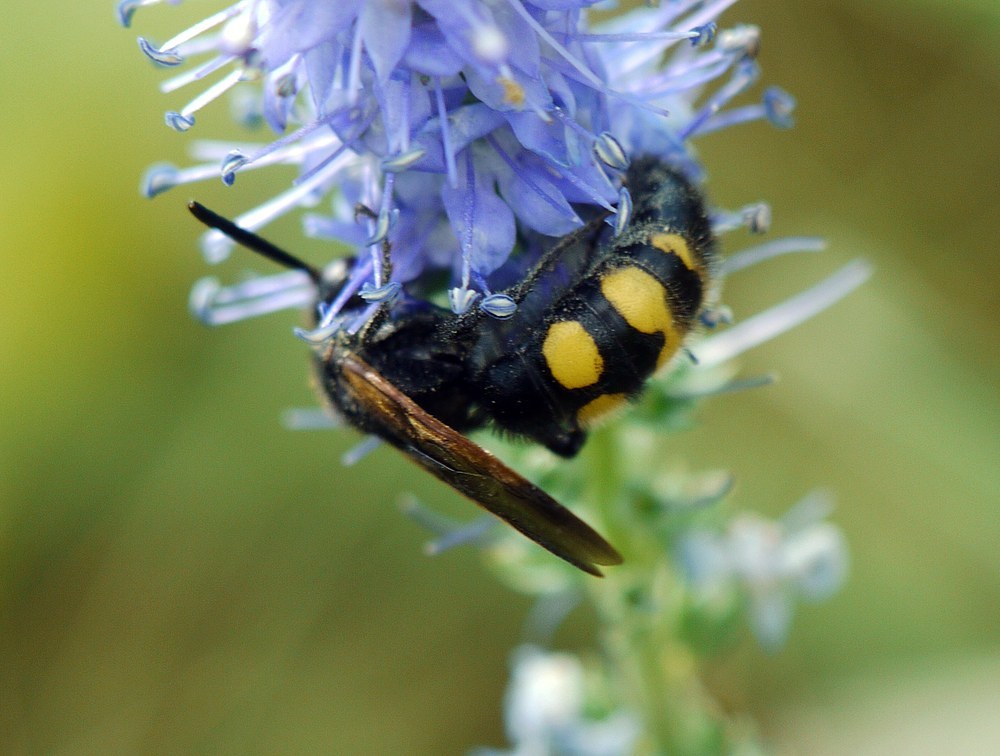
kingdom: Animalia
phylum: Arthropoda
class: Insecta
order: Hymenoptera
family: Scoliidae
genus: Scolia
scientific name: Scolia fuciformis
